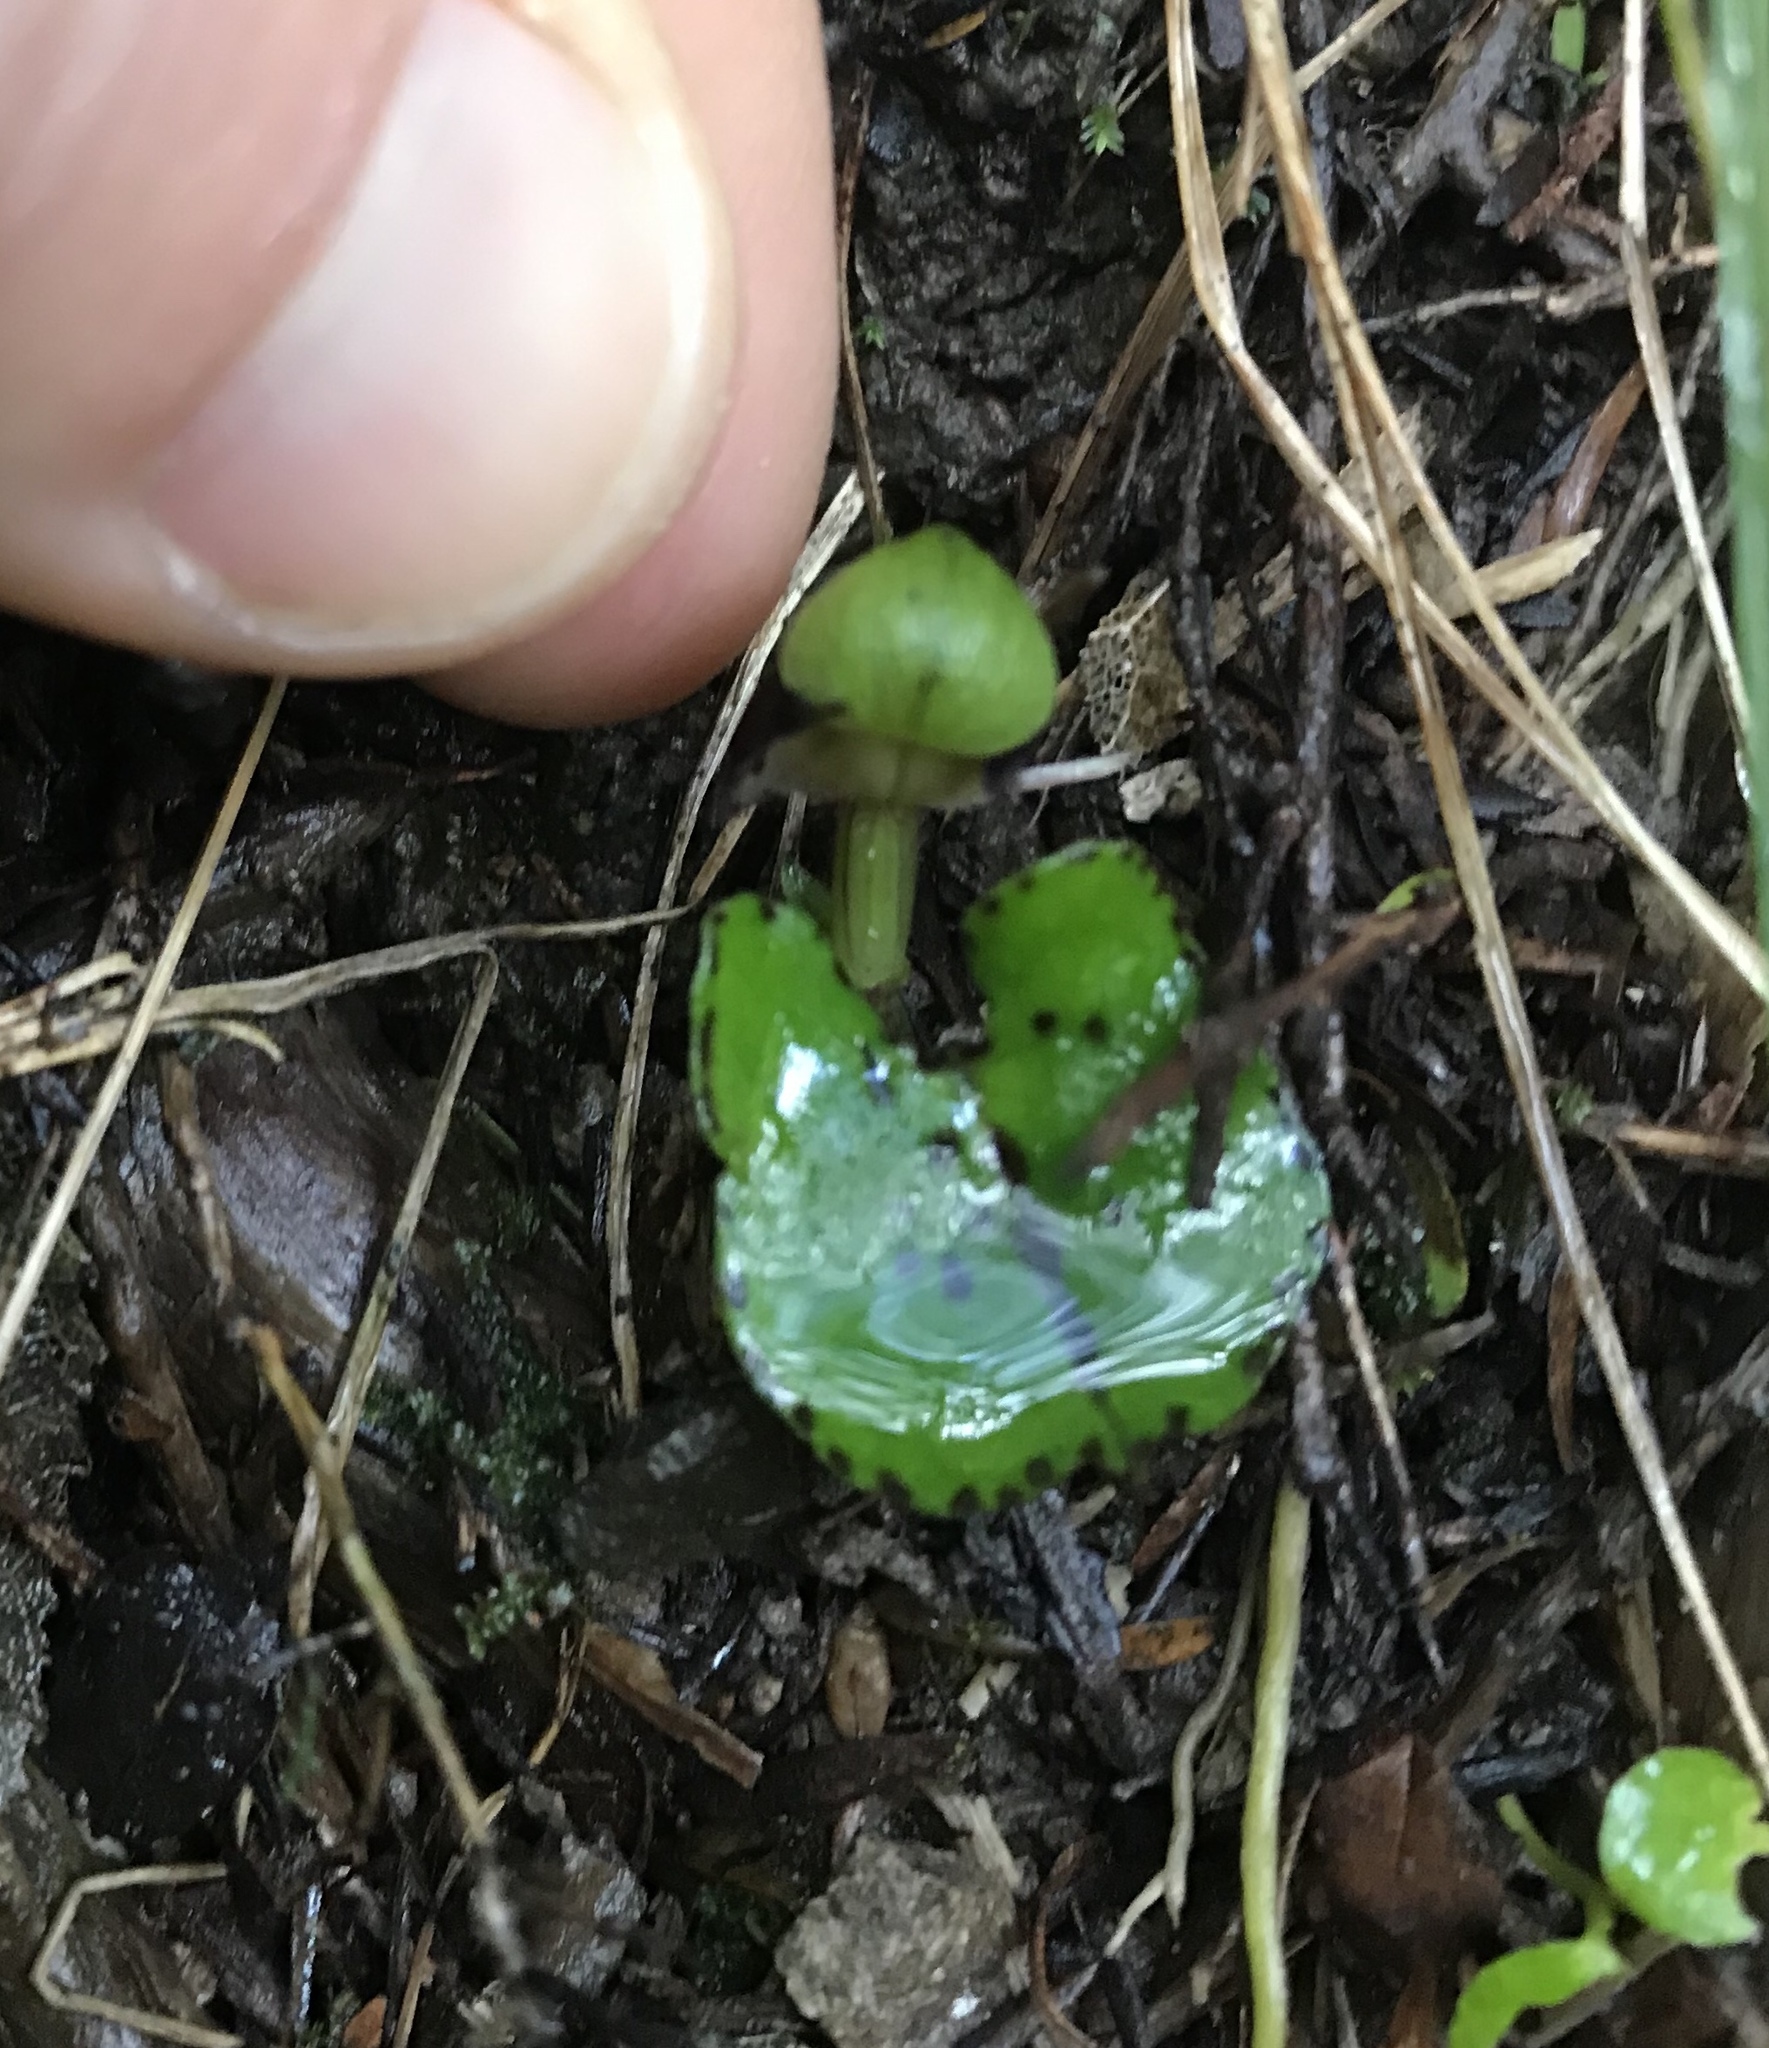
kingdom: Plantae
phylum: Tracheophyta
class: Liliopsida
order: Asparagales
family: Orchidaceae
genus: Corybas
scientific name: Corybas vitreus
